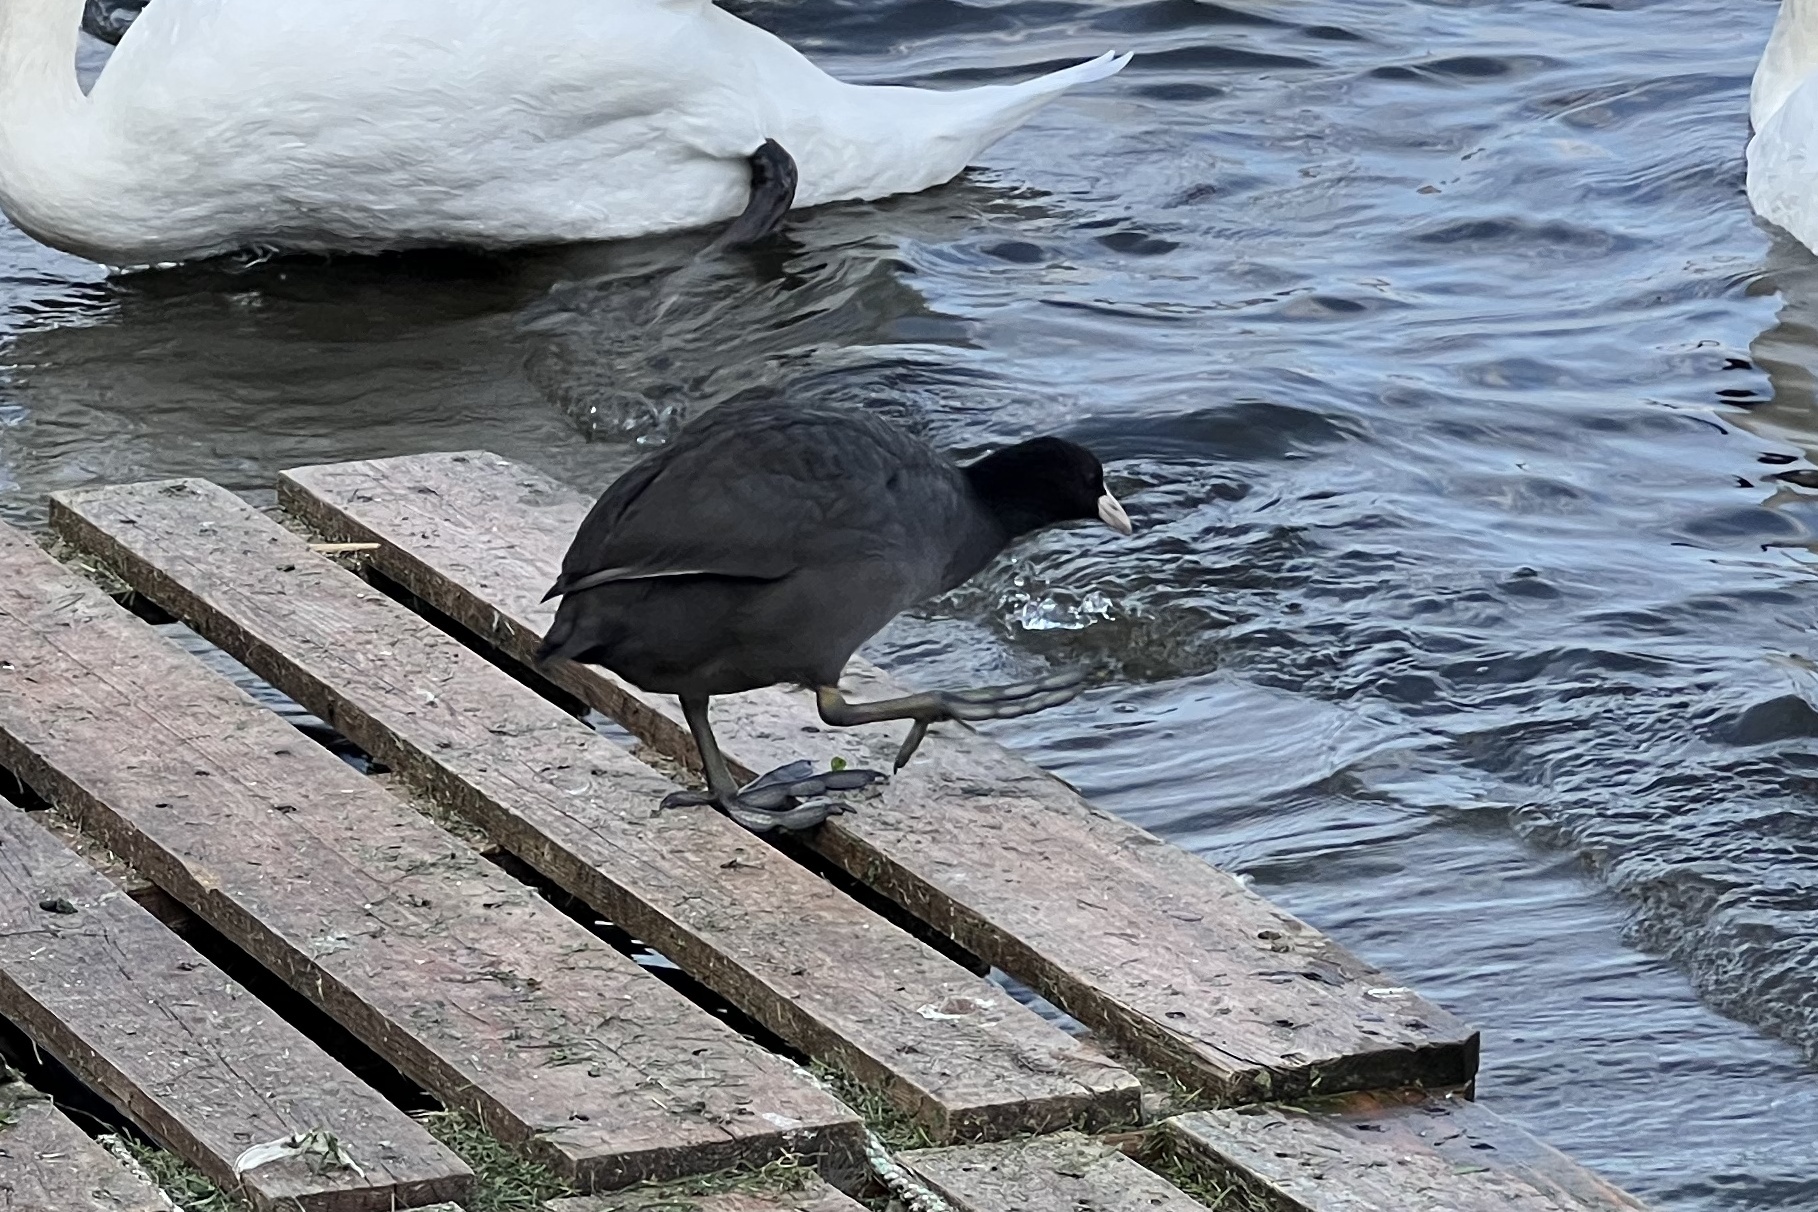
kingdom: Animalia
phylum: Chordata
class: Aves
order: Gruiformes
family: Rallidae
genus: Fulica
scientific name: Fulica atra
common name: Eurasian coot
